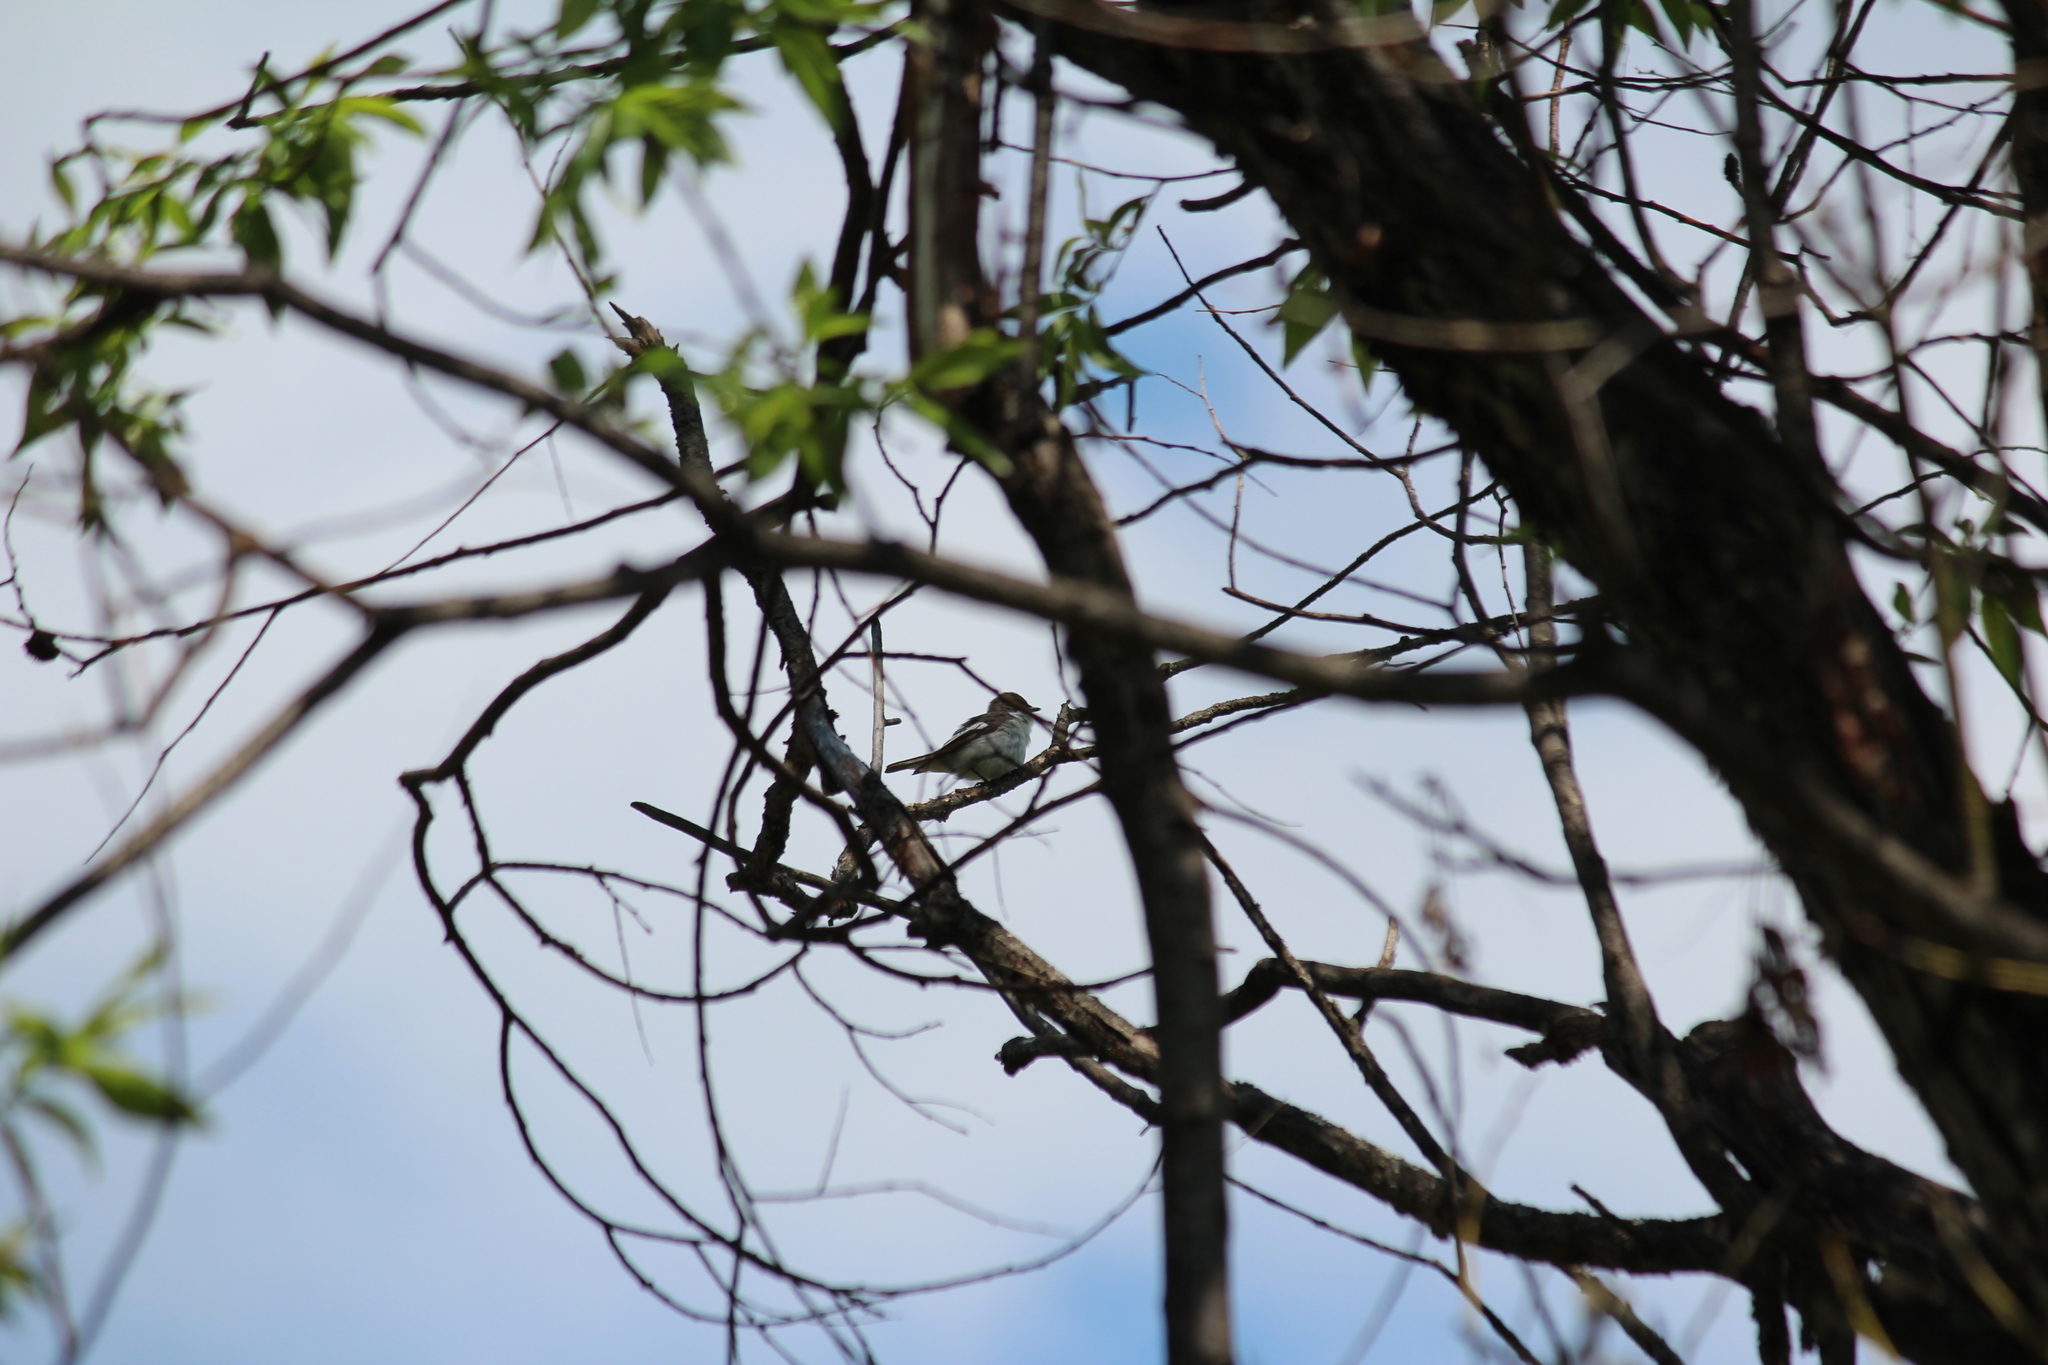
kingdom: Animalia
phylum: Chordata
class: Aves
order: Passeriformes
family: Muscicapidae
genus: Ficedula
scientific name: Ficedula hypoleuca
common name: European pied flycatcher
